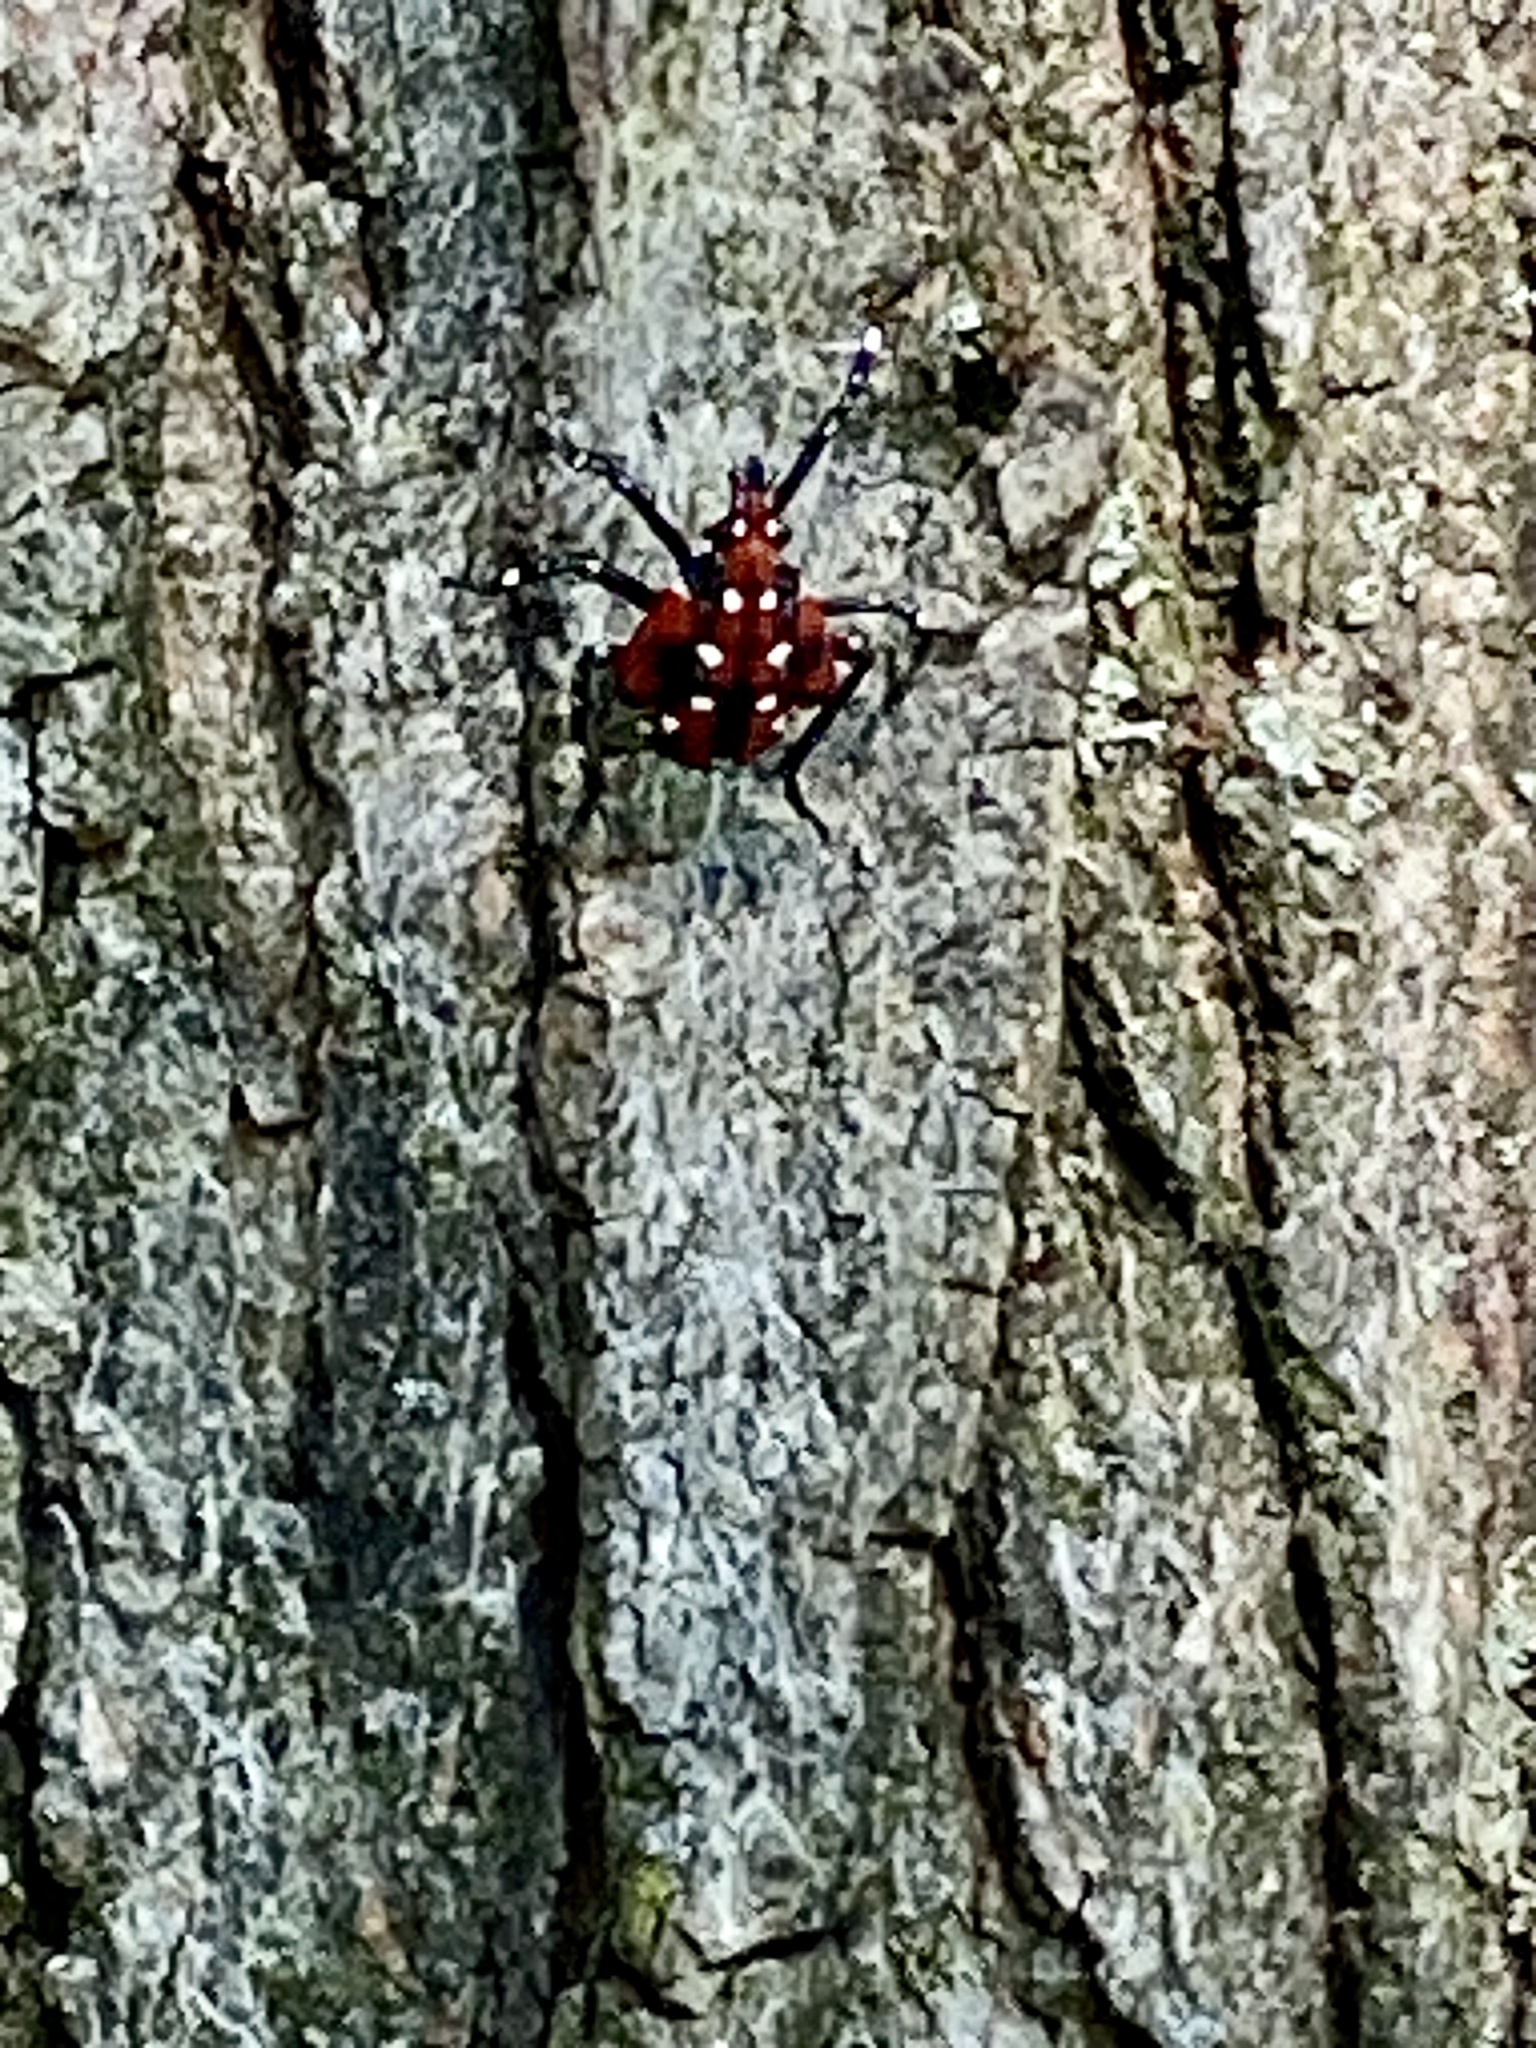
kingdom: Animalia
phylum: Arthropoda
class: Insecta
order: Hemiptera
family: Fulgoridae
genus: Lycorma
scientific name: Lycorma delicatula
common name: Spotted lanternfly
